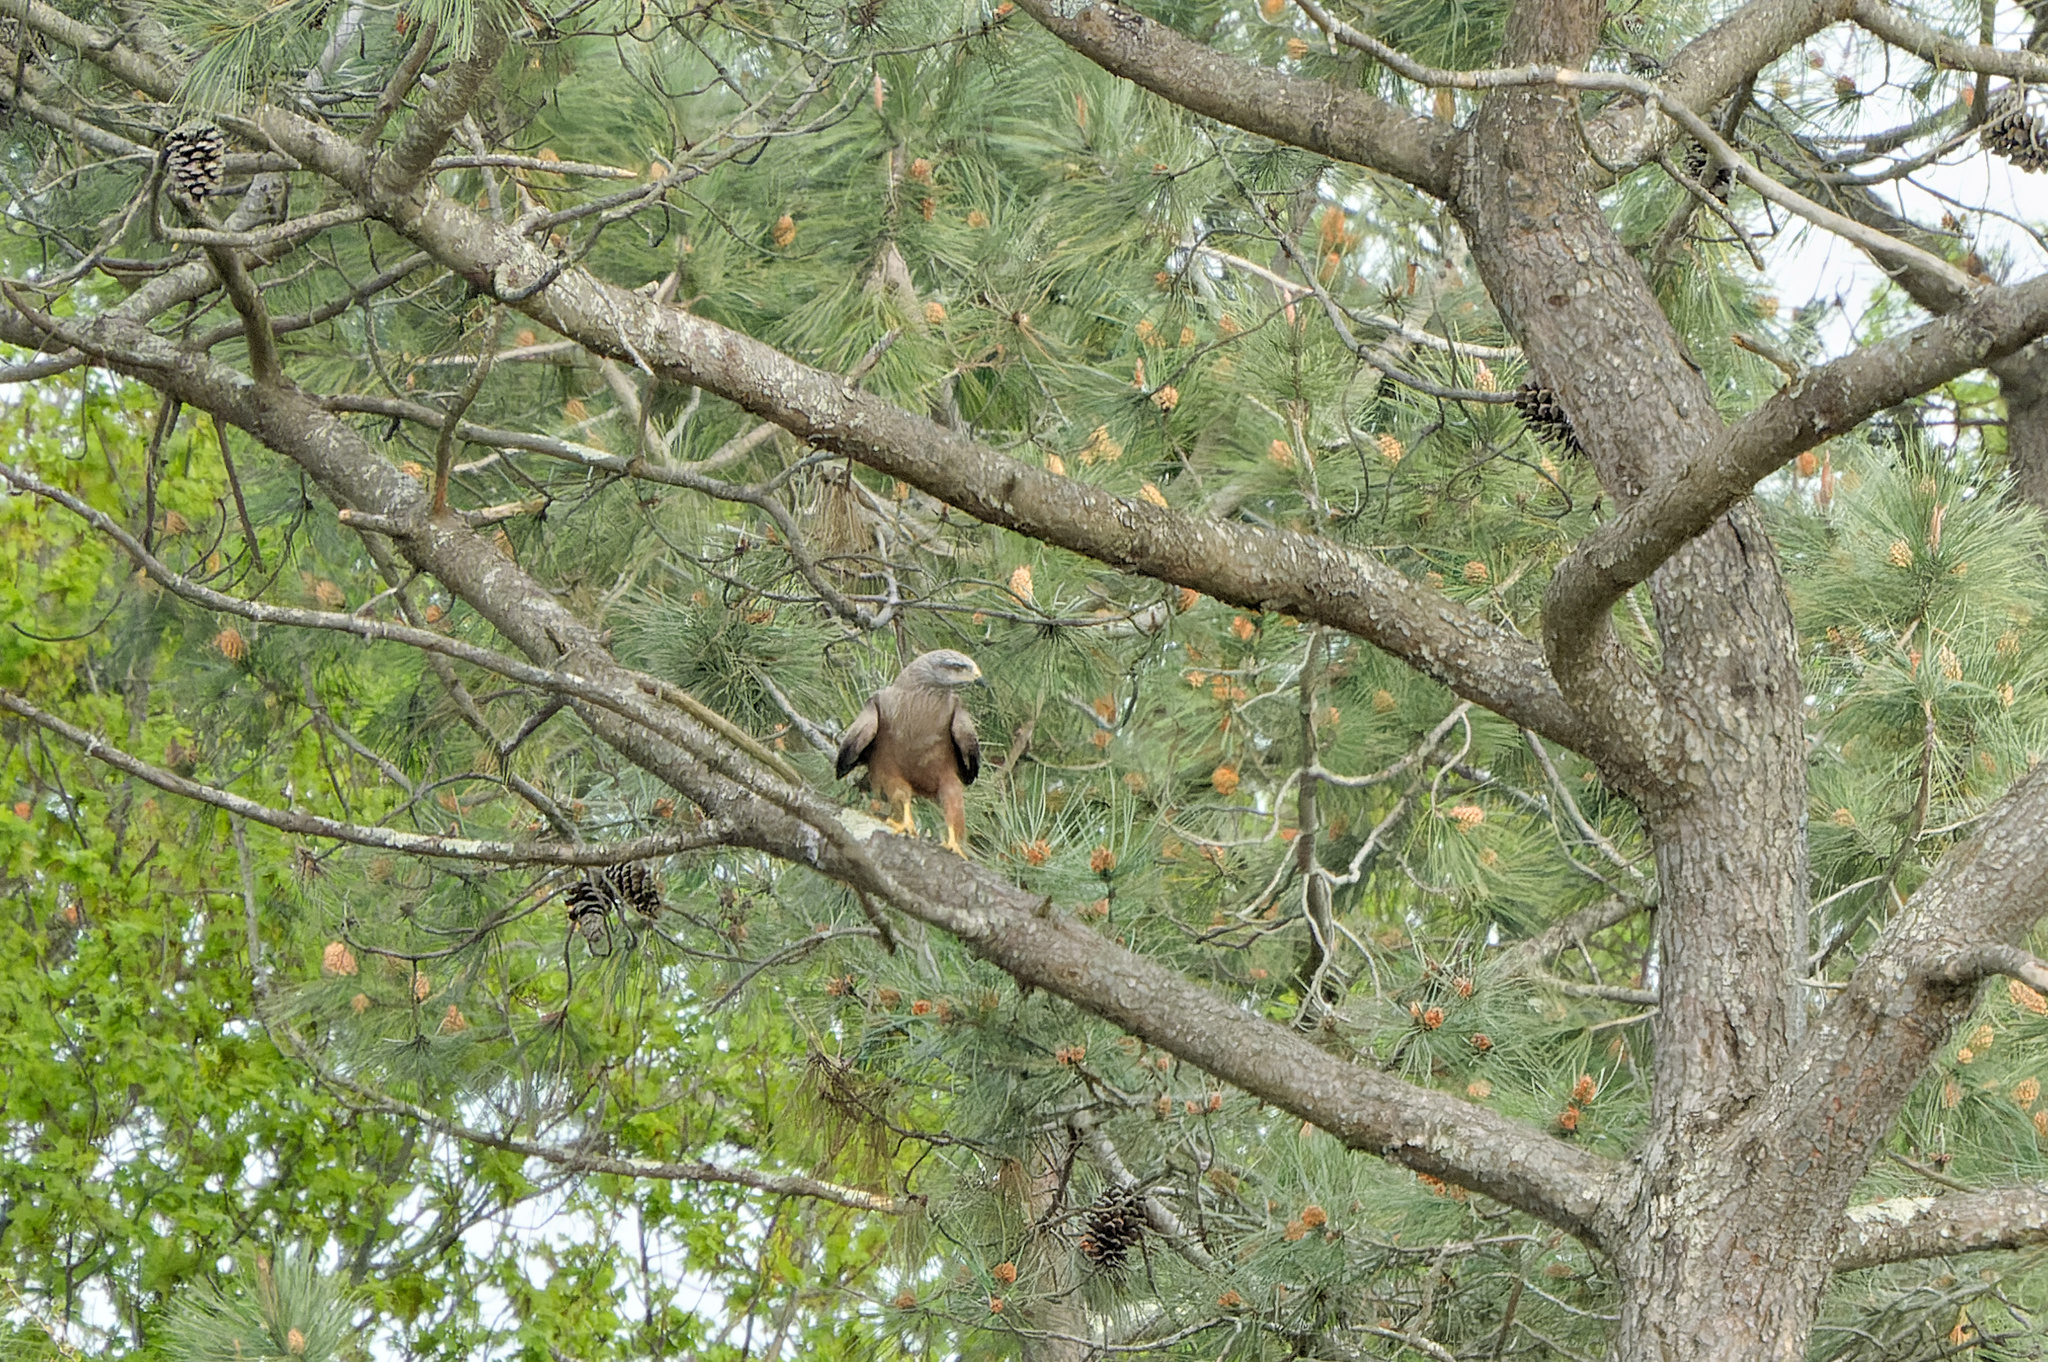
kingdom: Animalia
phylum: Chordata
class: Aves
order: Accipitriformes
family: Accipitridae
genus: Milvus
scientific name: Milvus migrans
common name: Black kite
